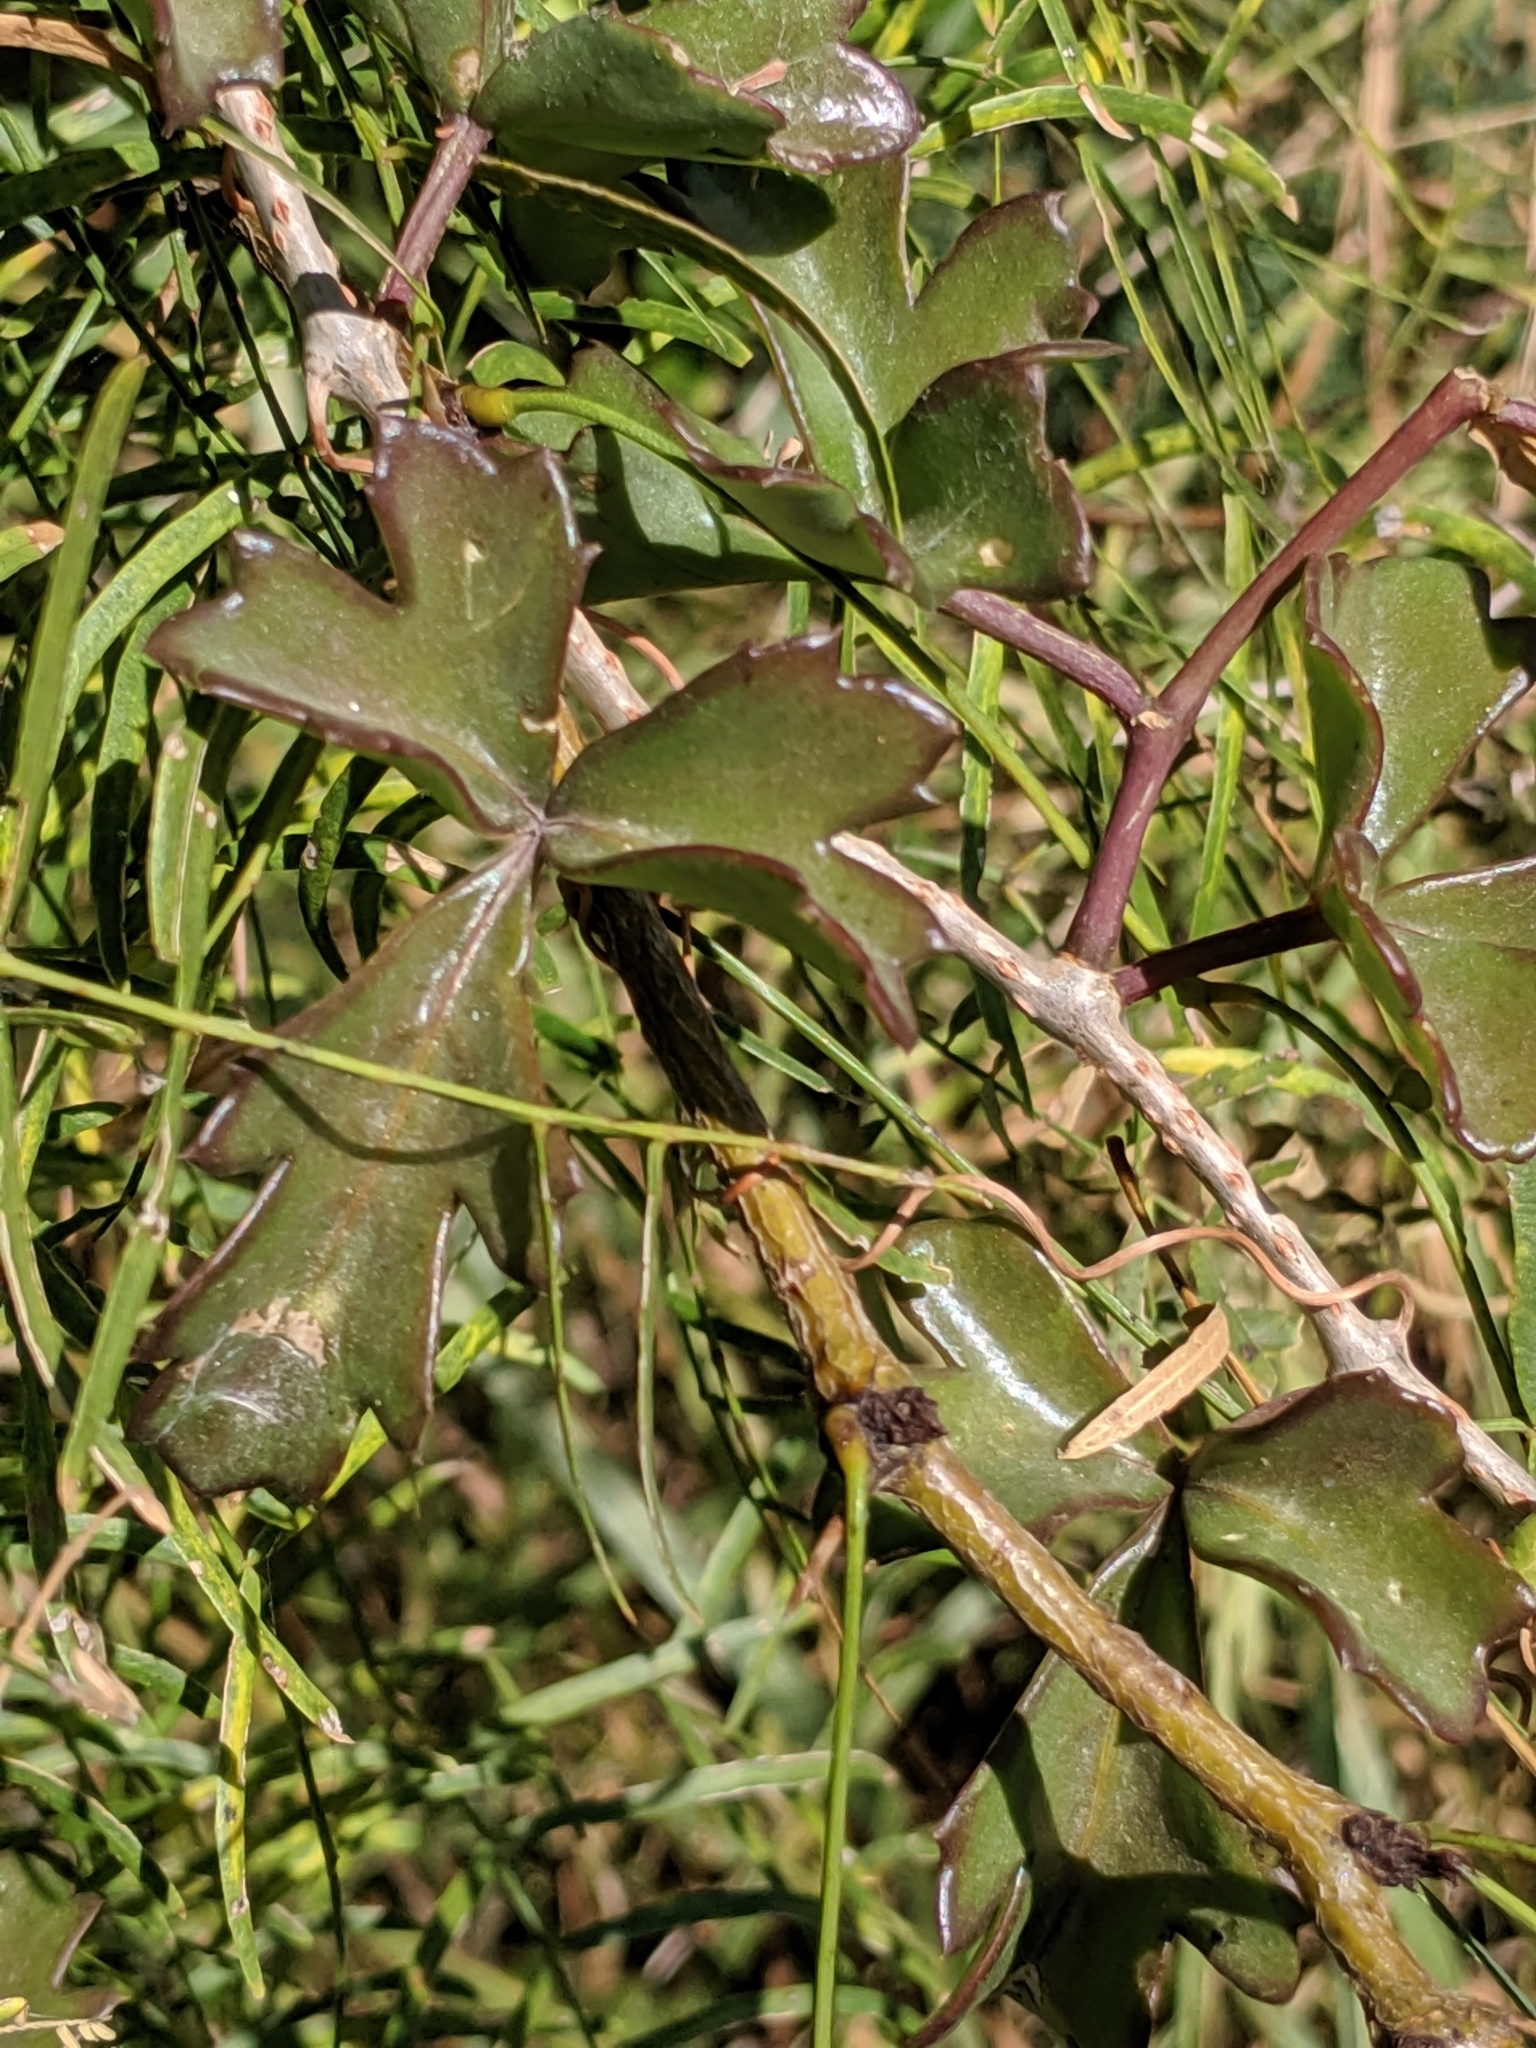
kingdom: Plantae
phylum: Tracheophyta
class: Magnoliopsida
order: Vitales
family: Vitaceae
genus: Cissus
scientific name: Cissus trifoliata
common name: Vine-sorrel
